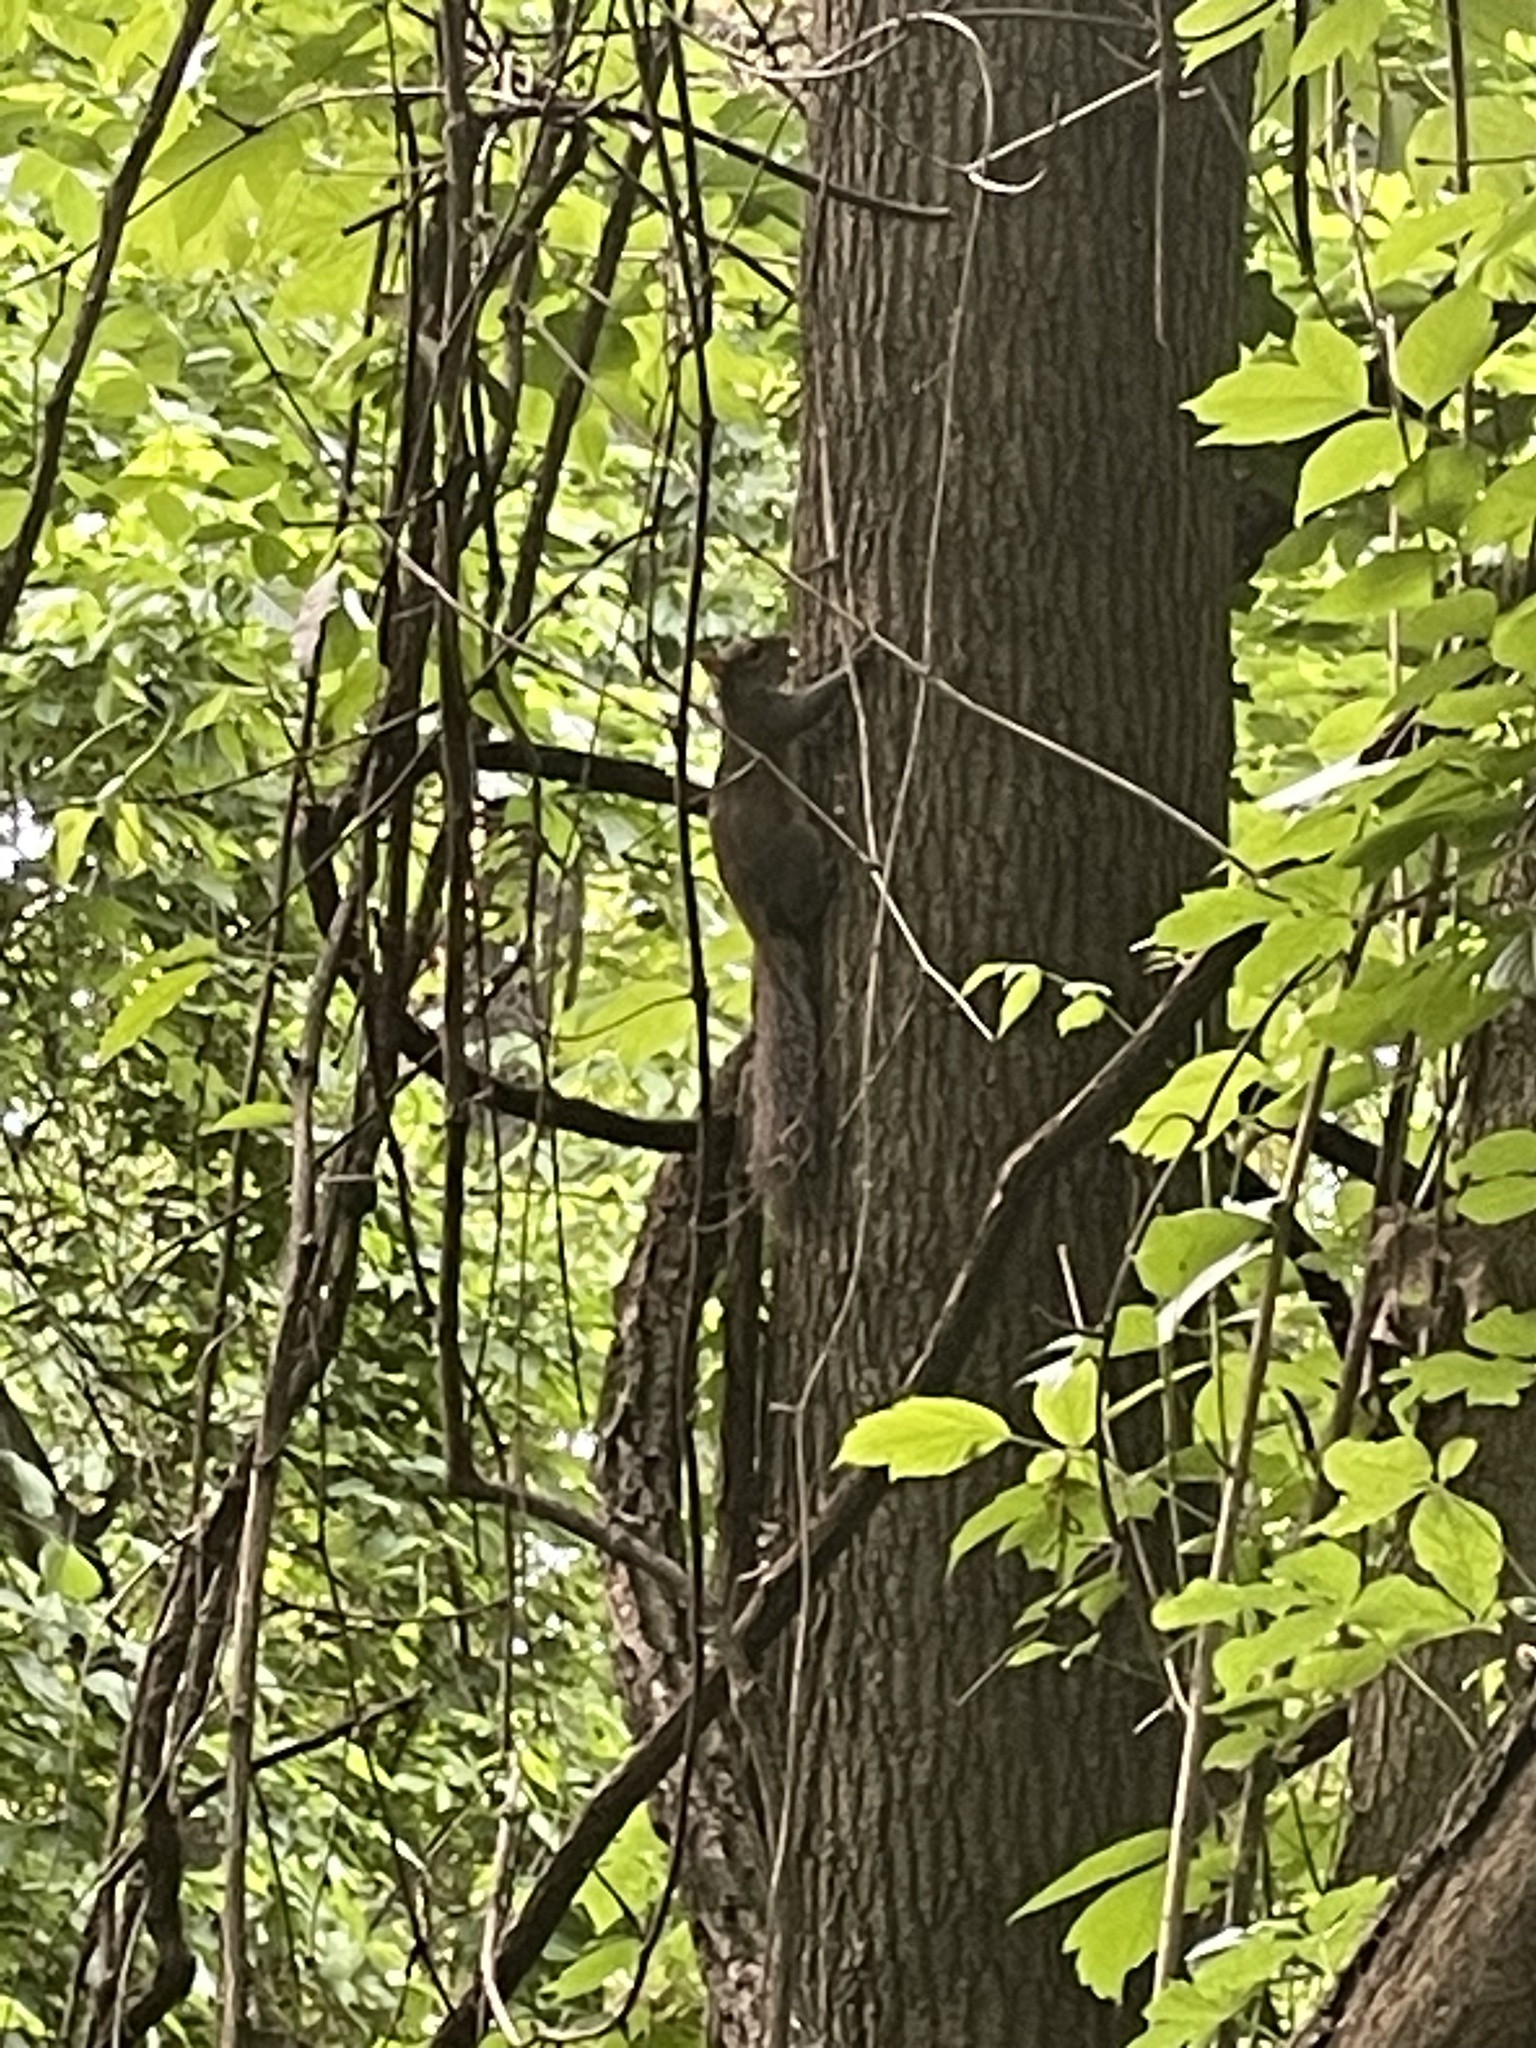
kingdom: Animalia
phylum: Chordata
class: Mammalia
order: Rodentia
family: Sciuridae
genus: Sciurus
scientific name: Sciurus carolinensis
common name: Eastern gray squirrel
